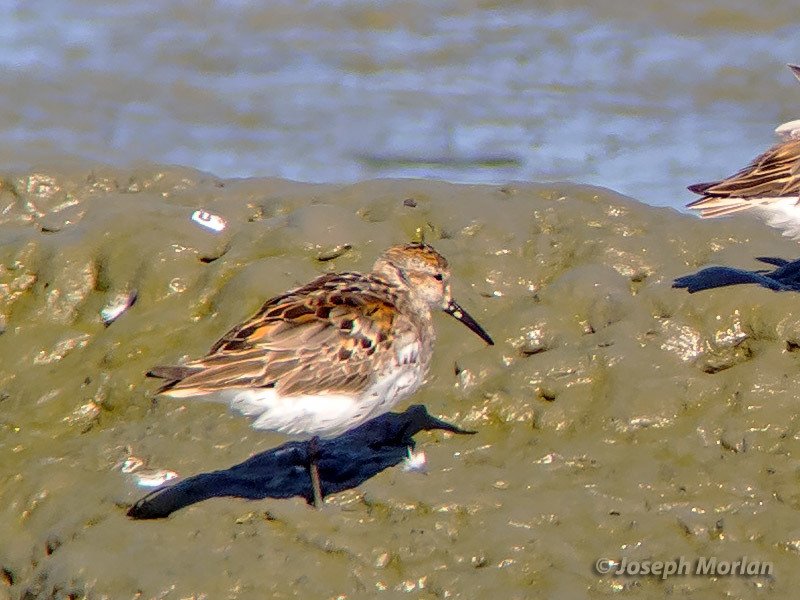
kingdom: Animalia
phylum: Chordata
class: Aves
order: Charadriiformes
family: Scolopacidae
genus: Calidris
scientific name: Calidris mauri
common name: Western sandpiper
